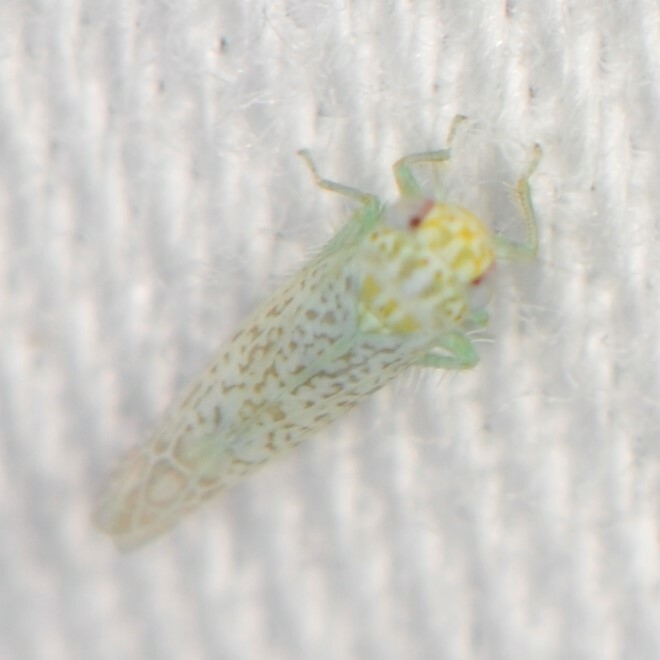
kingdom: Animalia
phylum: Arthropoda
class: Insecta
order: Hemiptera
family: Cicadellidae
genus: Hebata
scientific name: Hebata
